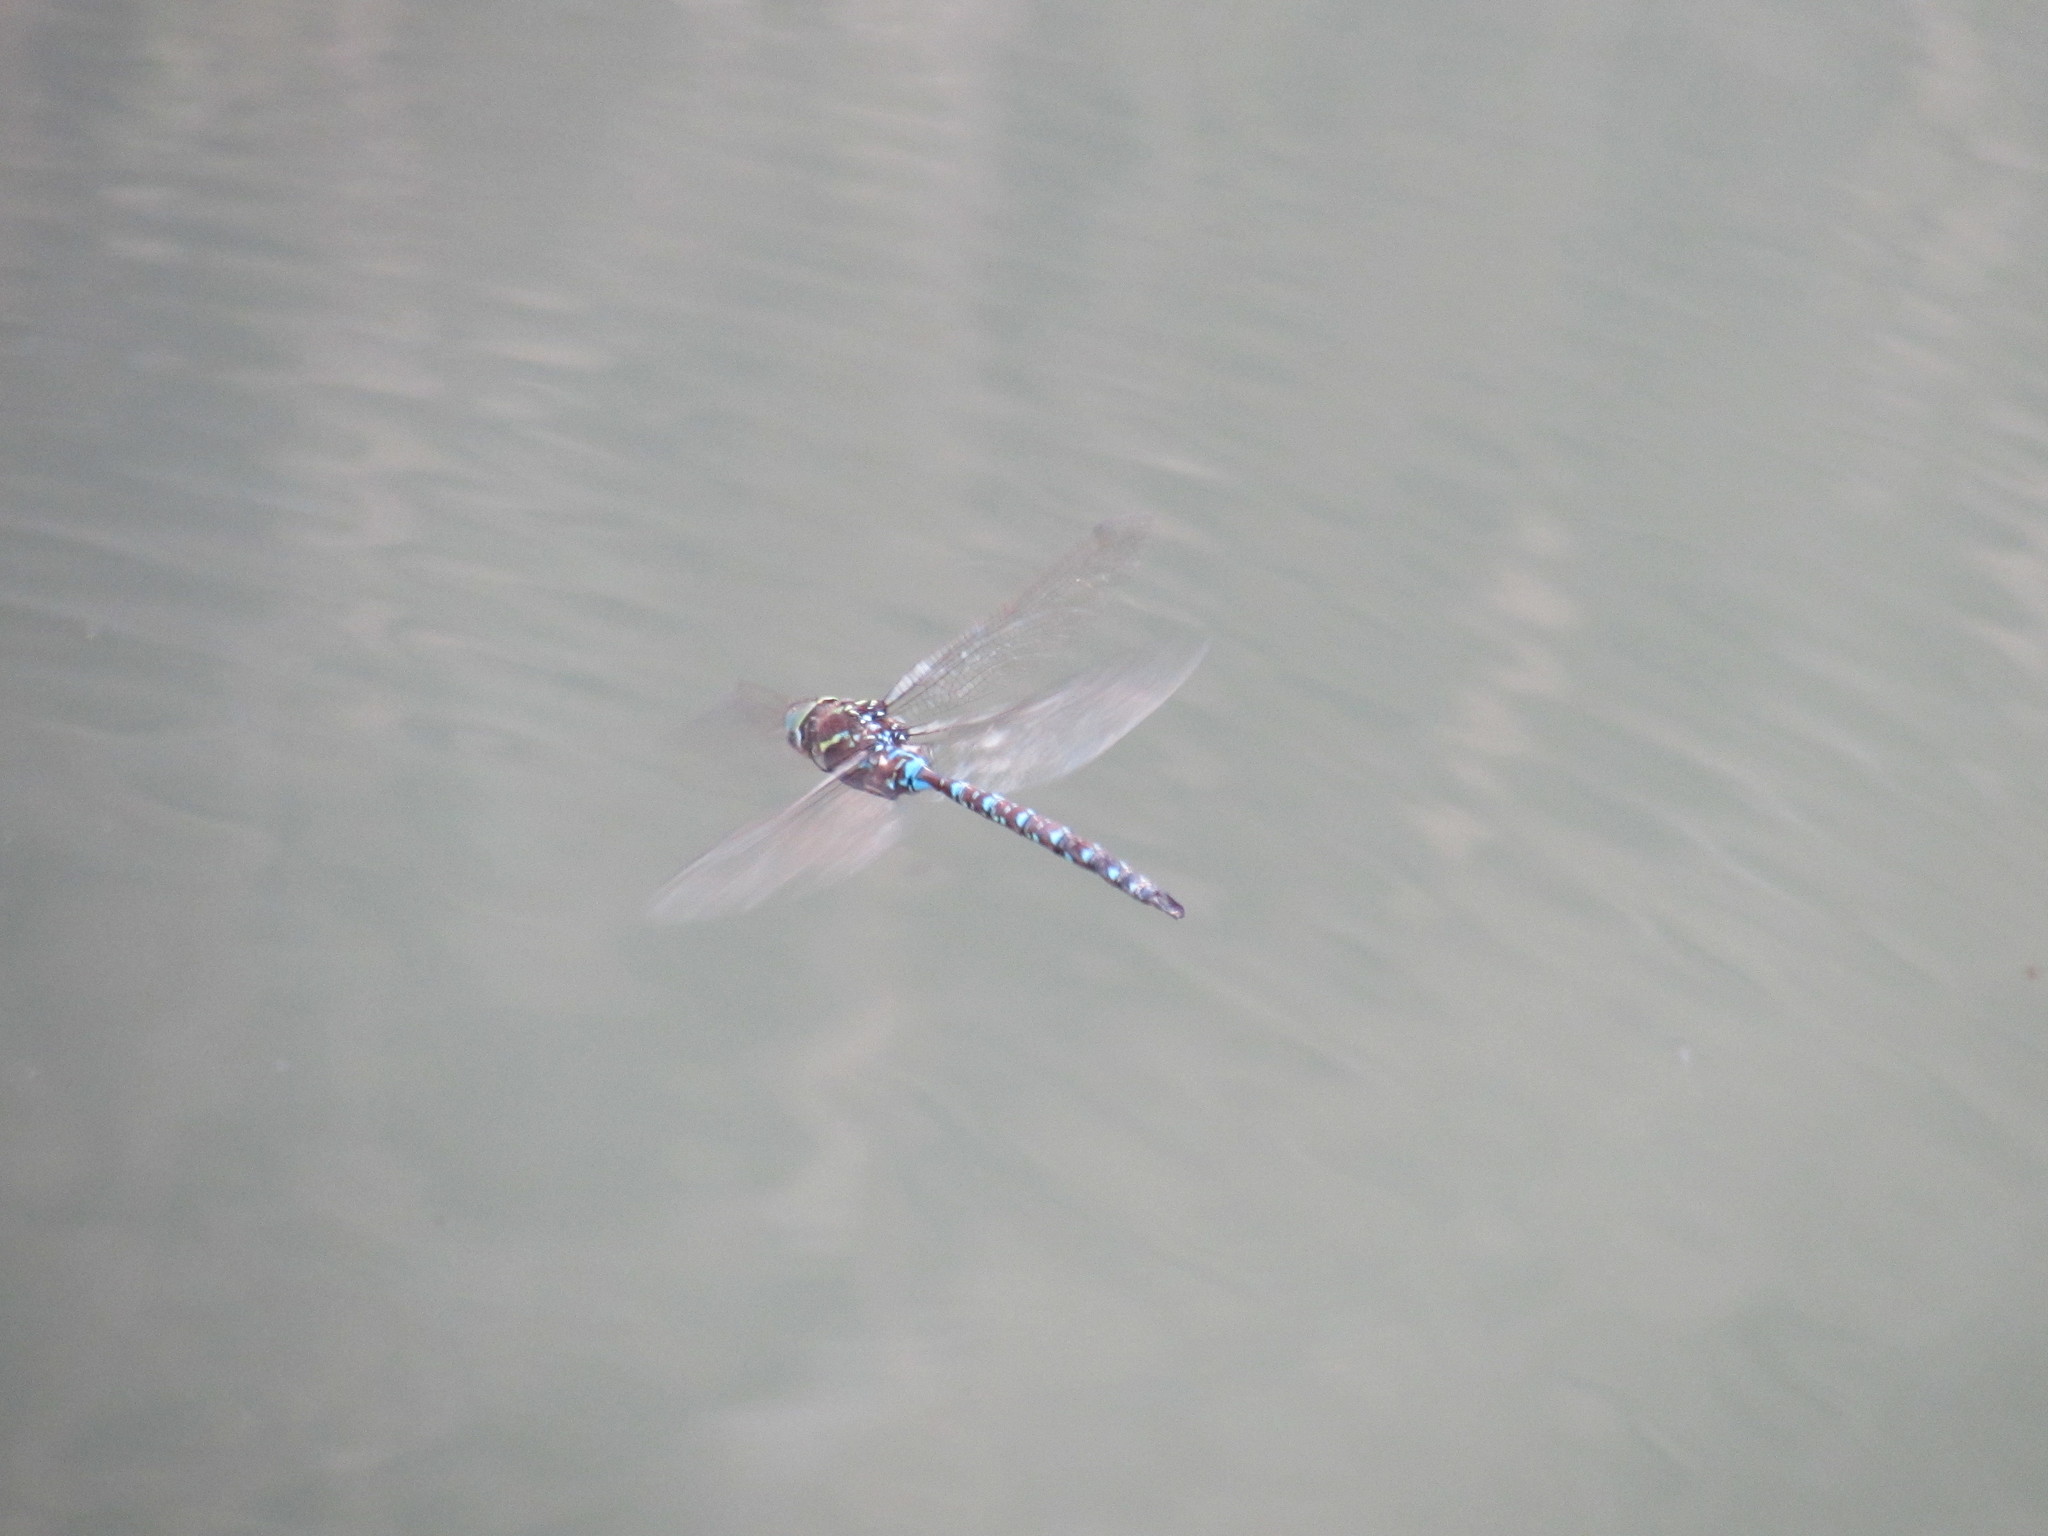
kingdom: Animalia
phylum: Arthropoda
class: Insecta
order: Odonata
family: Aeshnidae
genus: Aeshna
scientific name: Aeshna umbrosa
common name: Shadow darner
